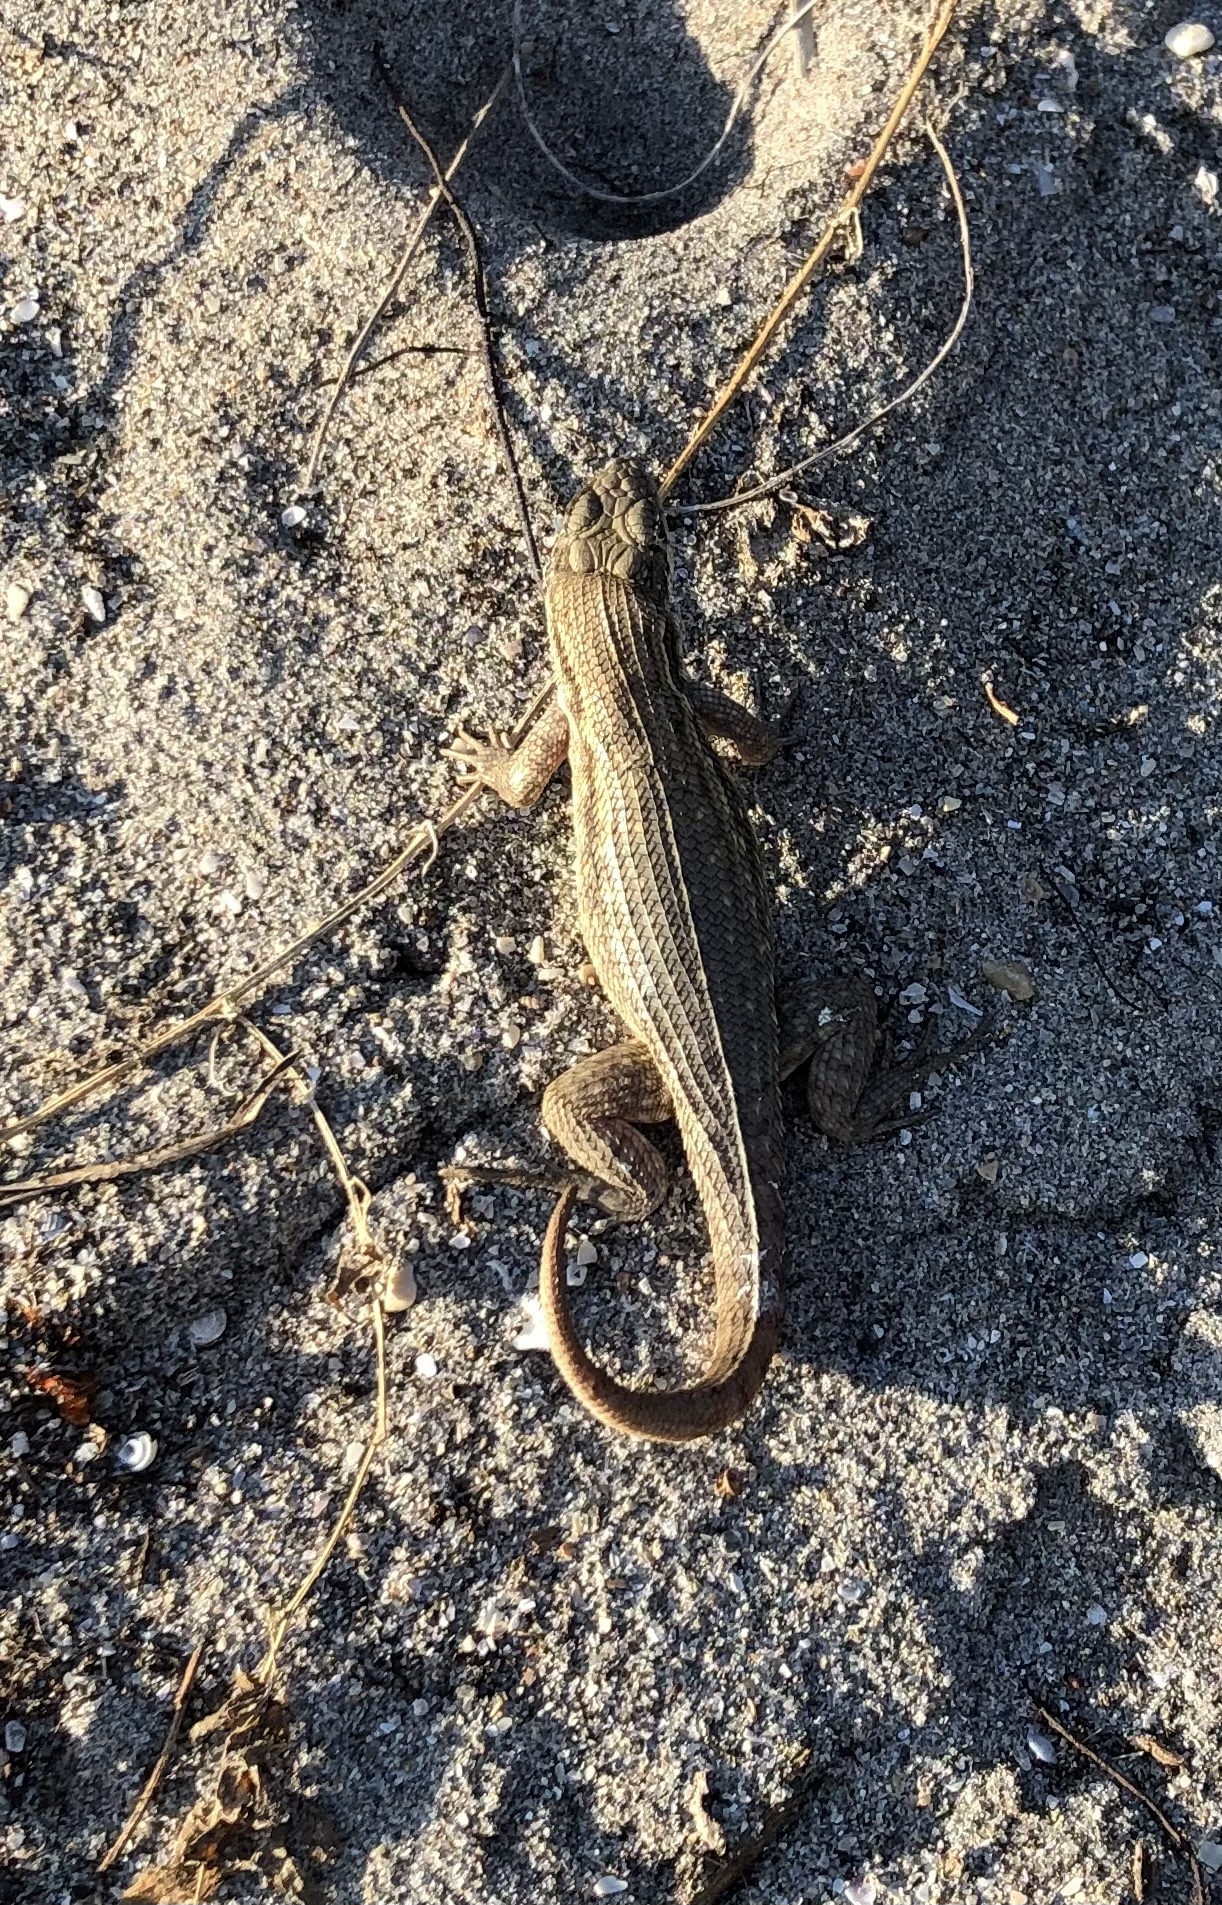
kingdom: Animalia
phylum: Chordata
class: Squamata
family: Leiocephalidae
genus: Leiocephalus
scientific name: Leiocephalus carinatus
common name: Northern curly-tailed lizard
